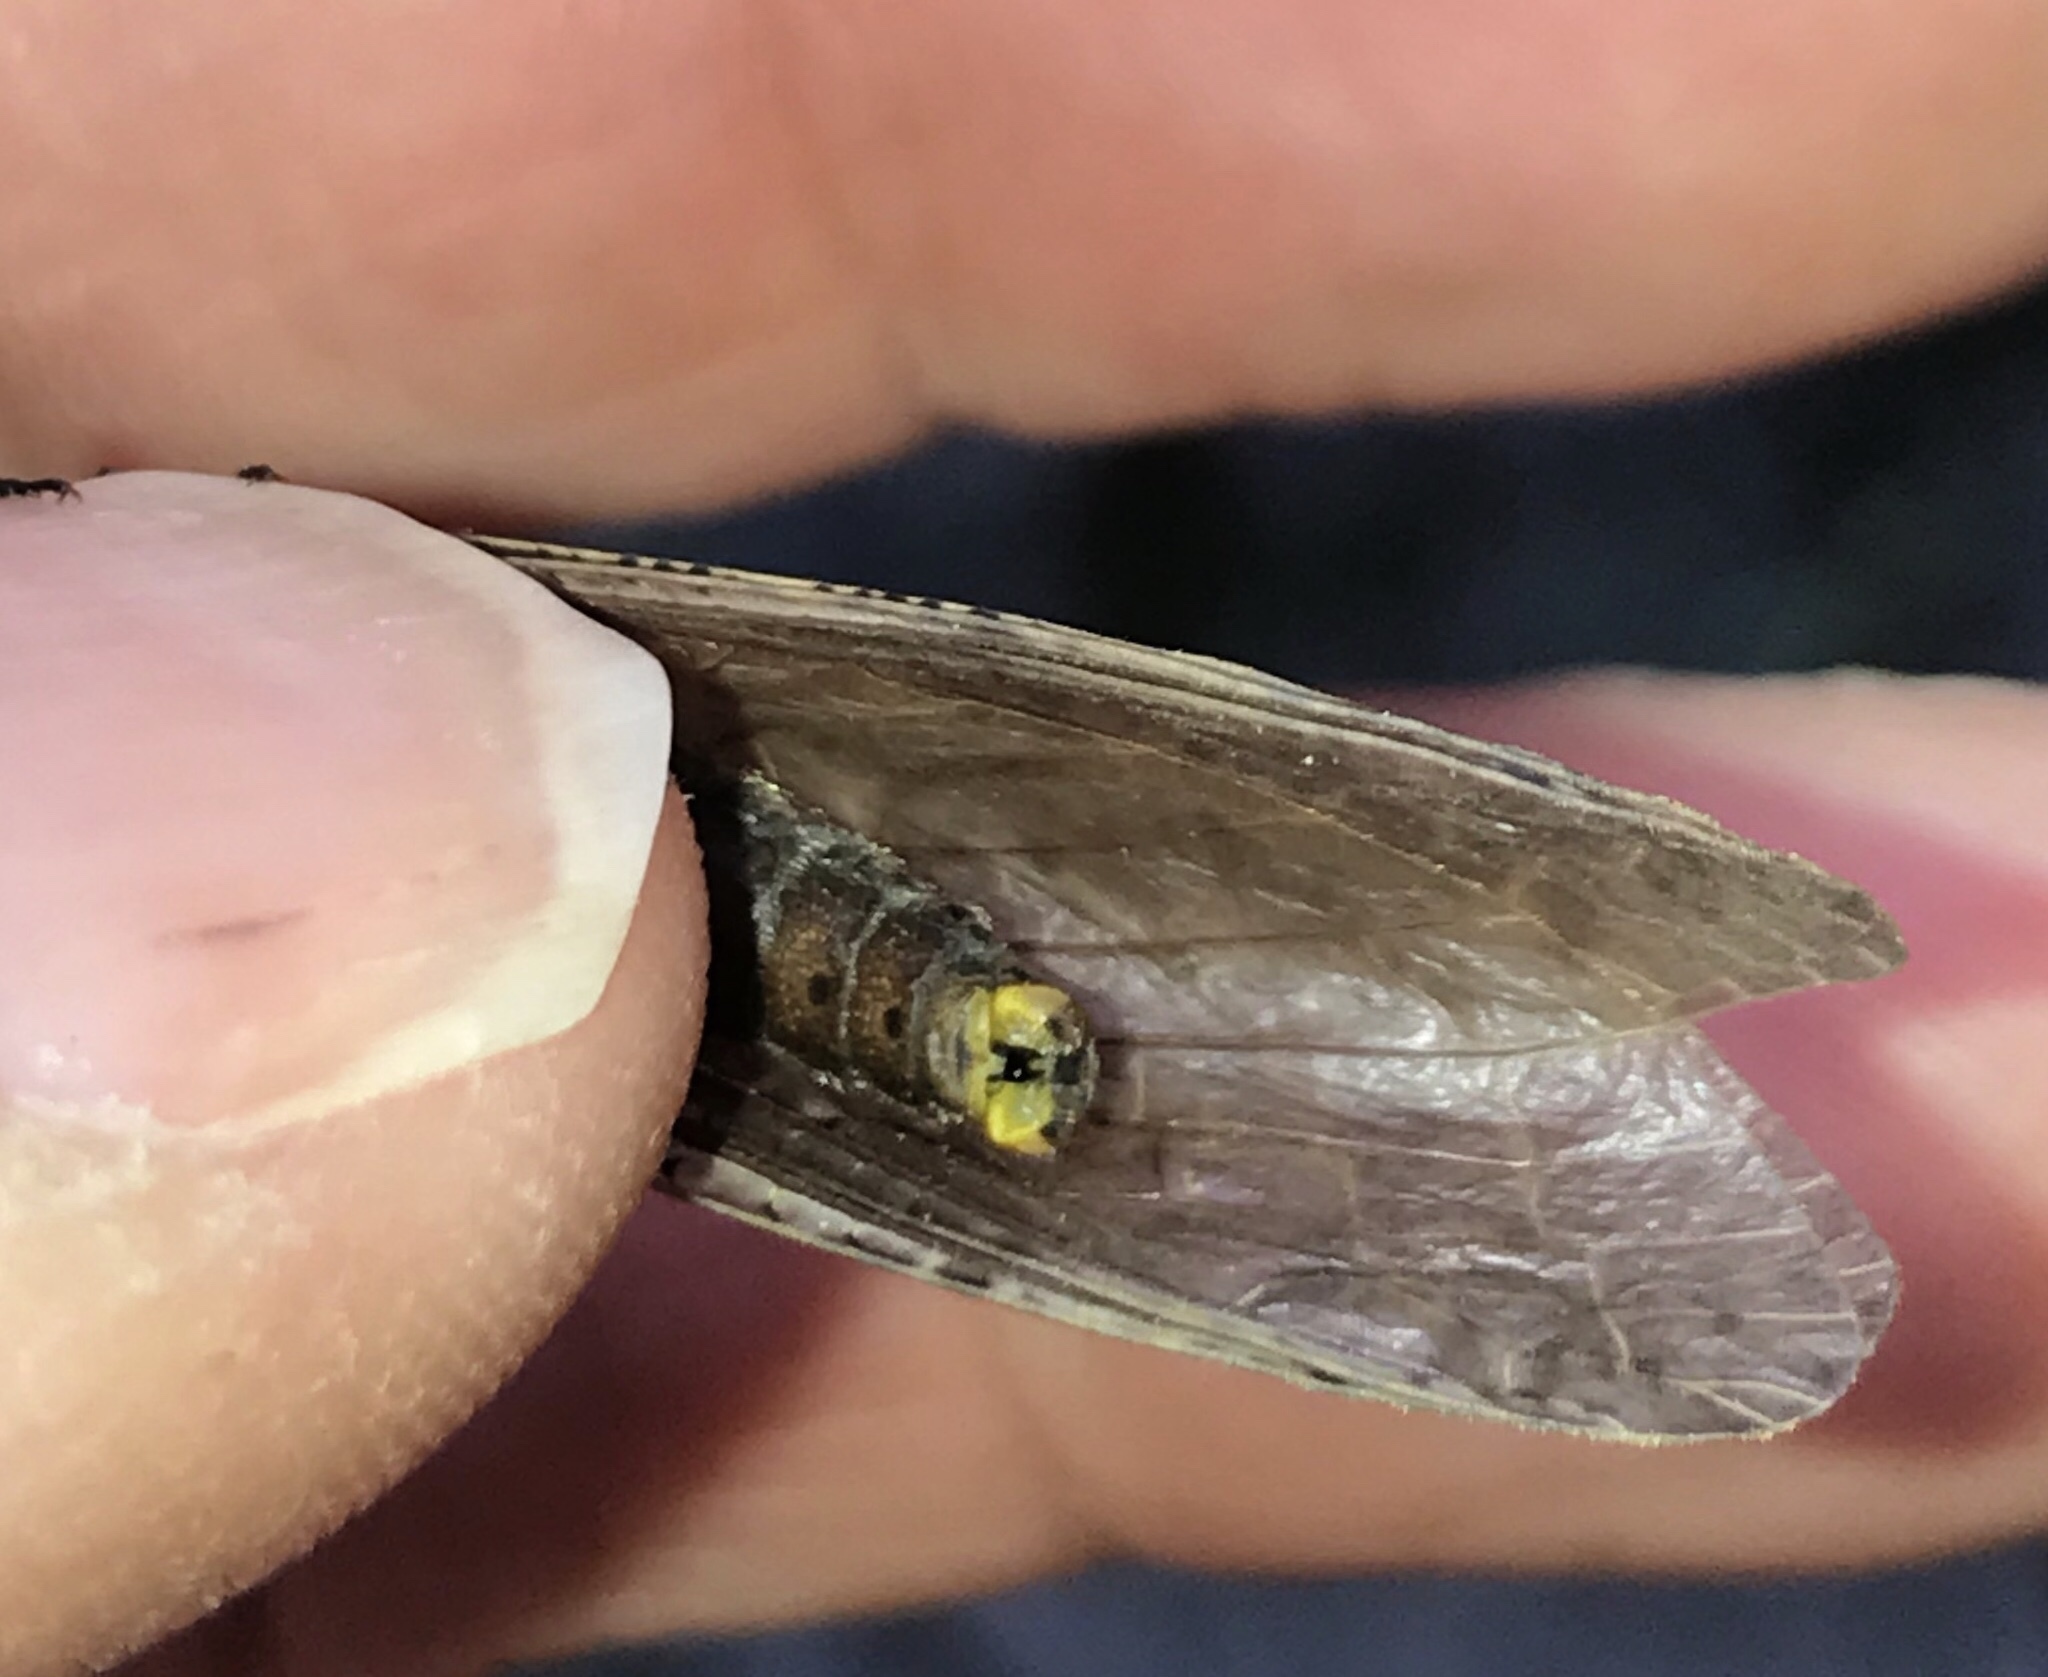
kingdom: Animalia
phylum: Arthropoda
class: Insecta
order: Megaloptera
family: Corydalidae
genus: Chauliodes
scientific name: Chauliodes rastricornis
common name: Spring fishfly
